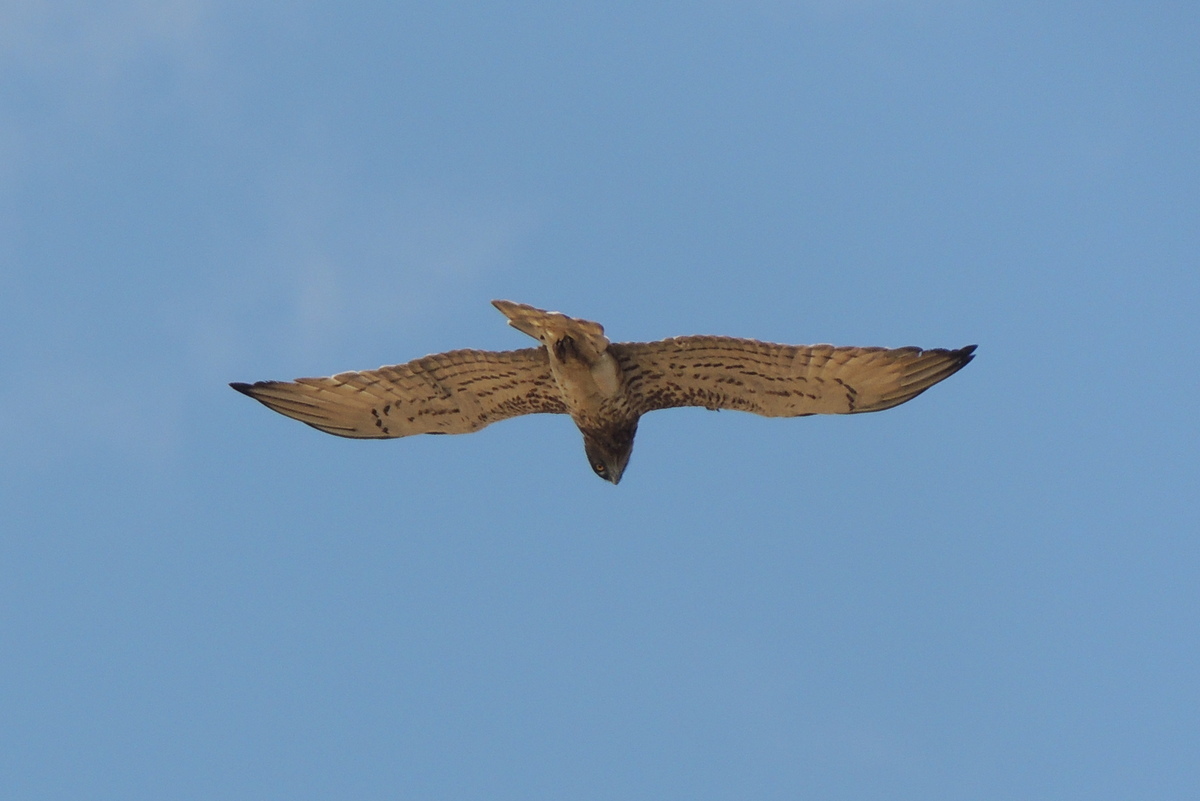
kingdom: Animalia
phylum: Chordata
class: Aves
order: Accipitriformes
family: Accipitridae
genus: Circaetus
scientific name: Circaetus gallicus
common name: Short-toed snake eagle
